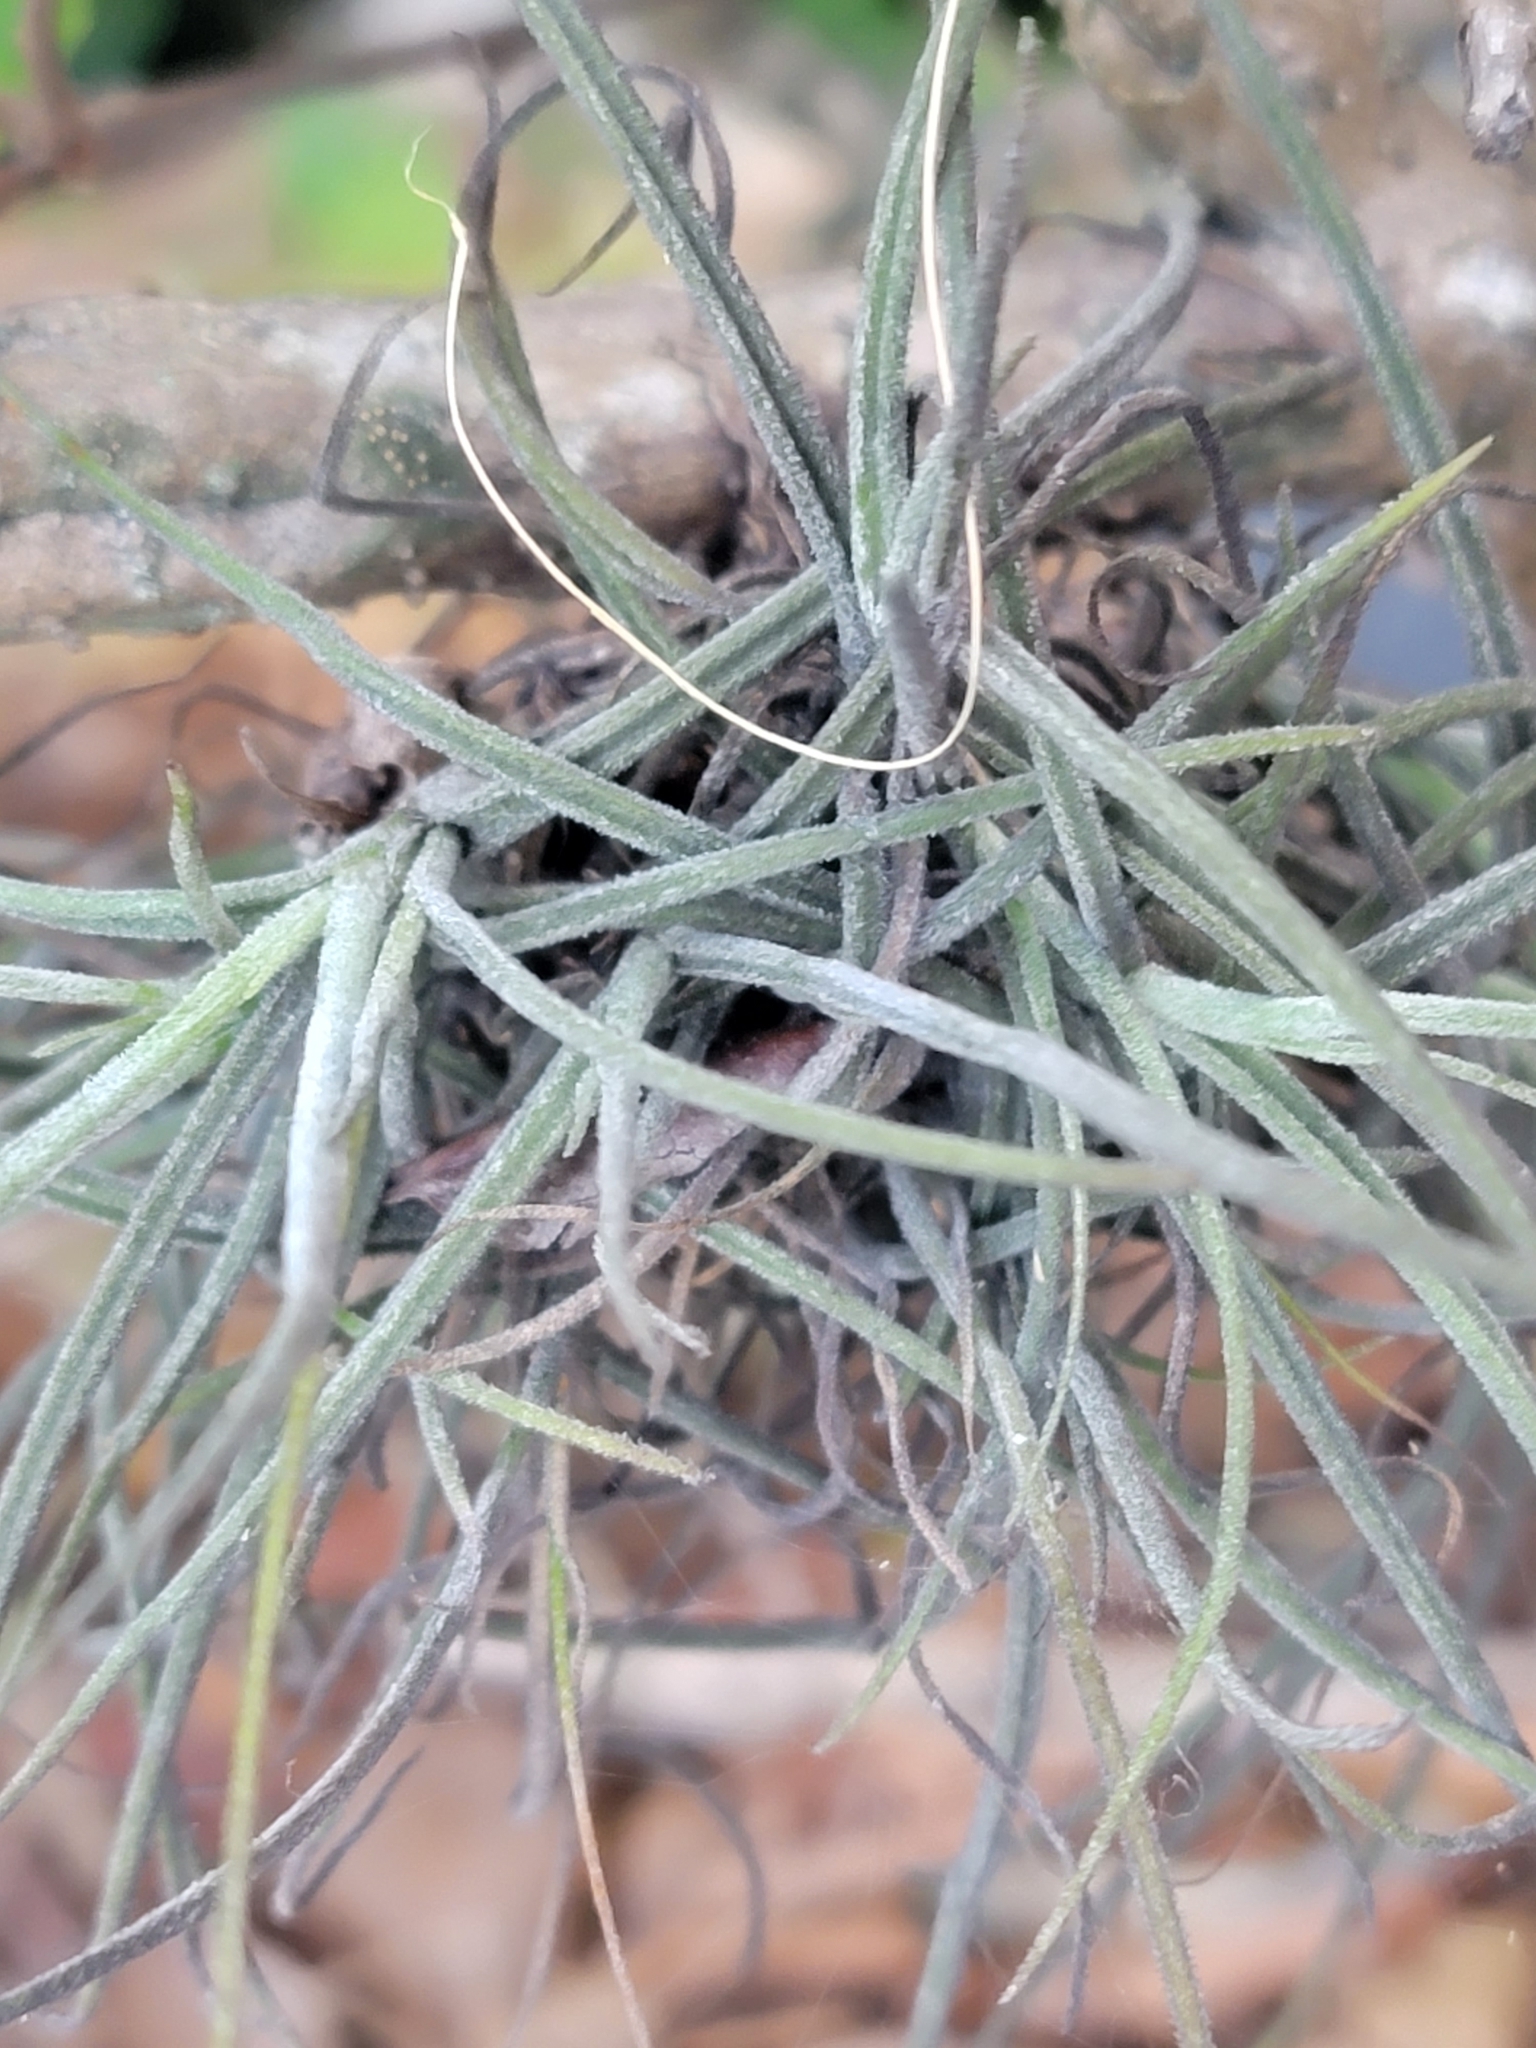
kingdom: Plantae
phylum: Tracheophyta
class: Liliopsida
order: Poales
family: Bromeliaceae
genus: Tillandsia
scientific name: Tillandsia recurvata
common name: Small ballmoss
